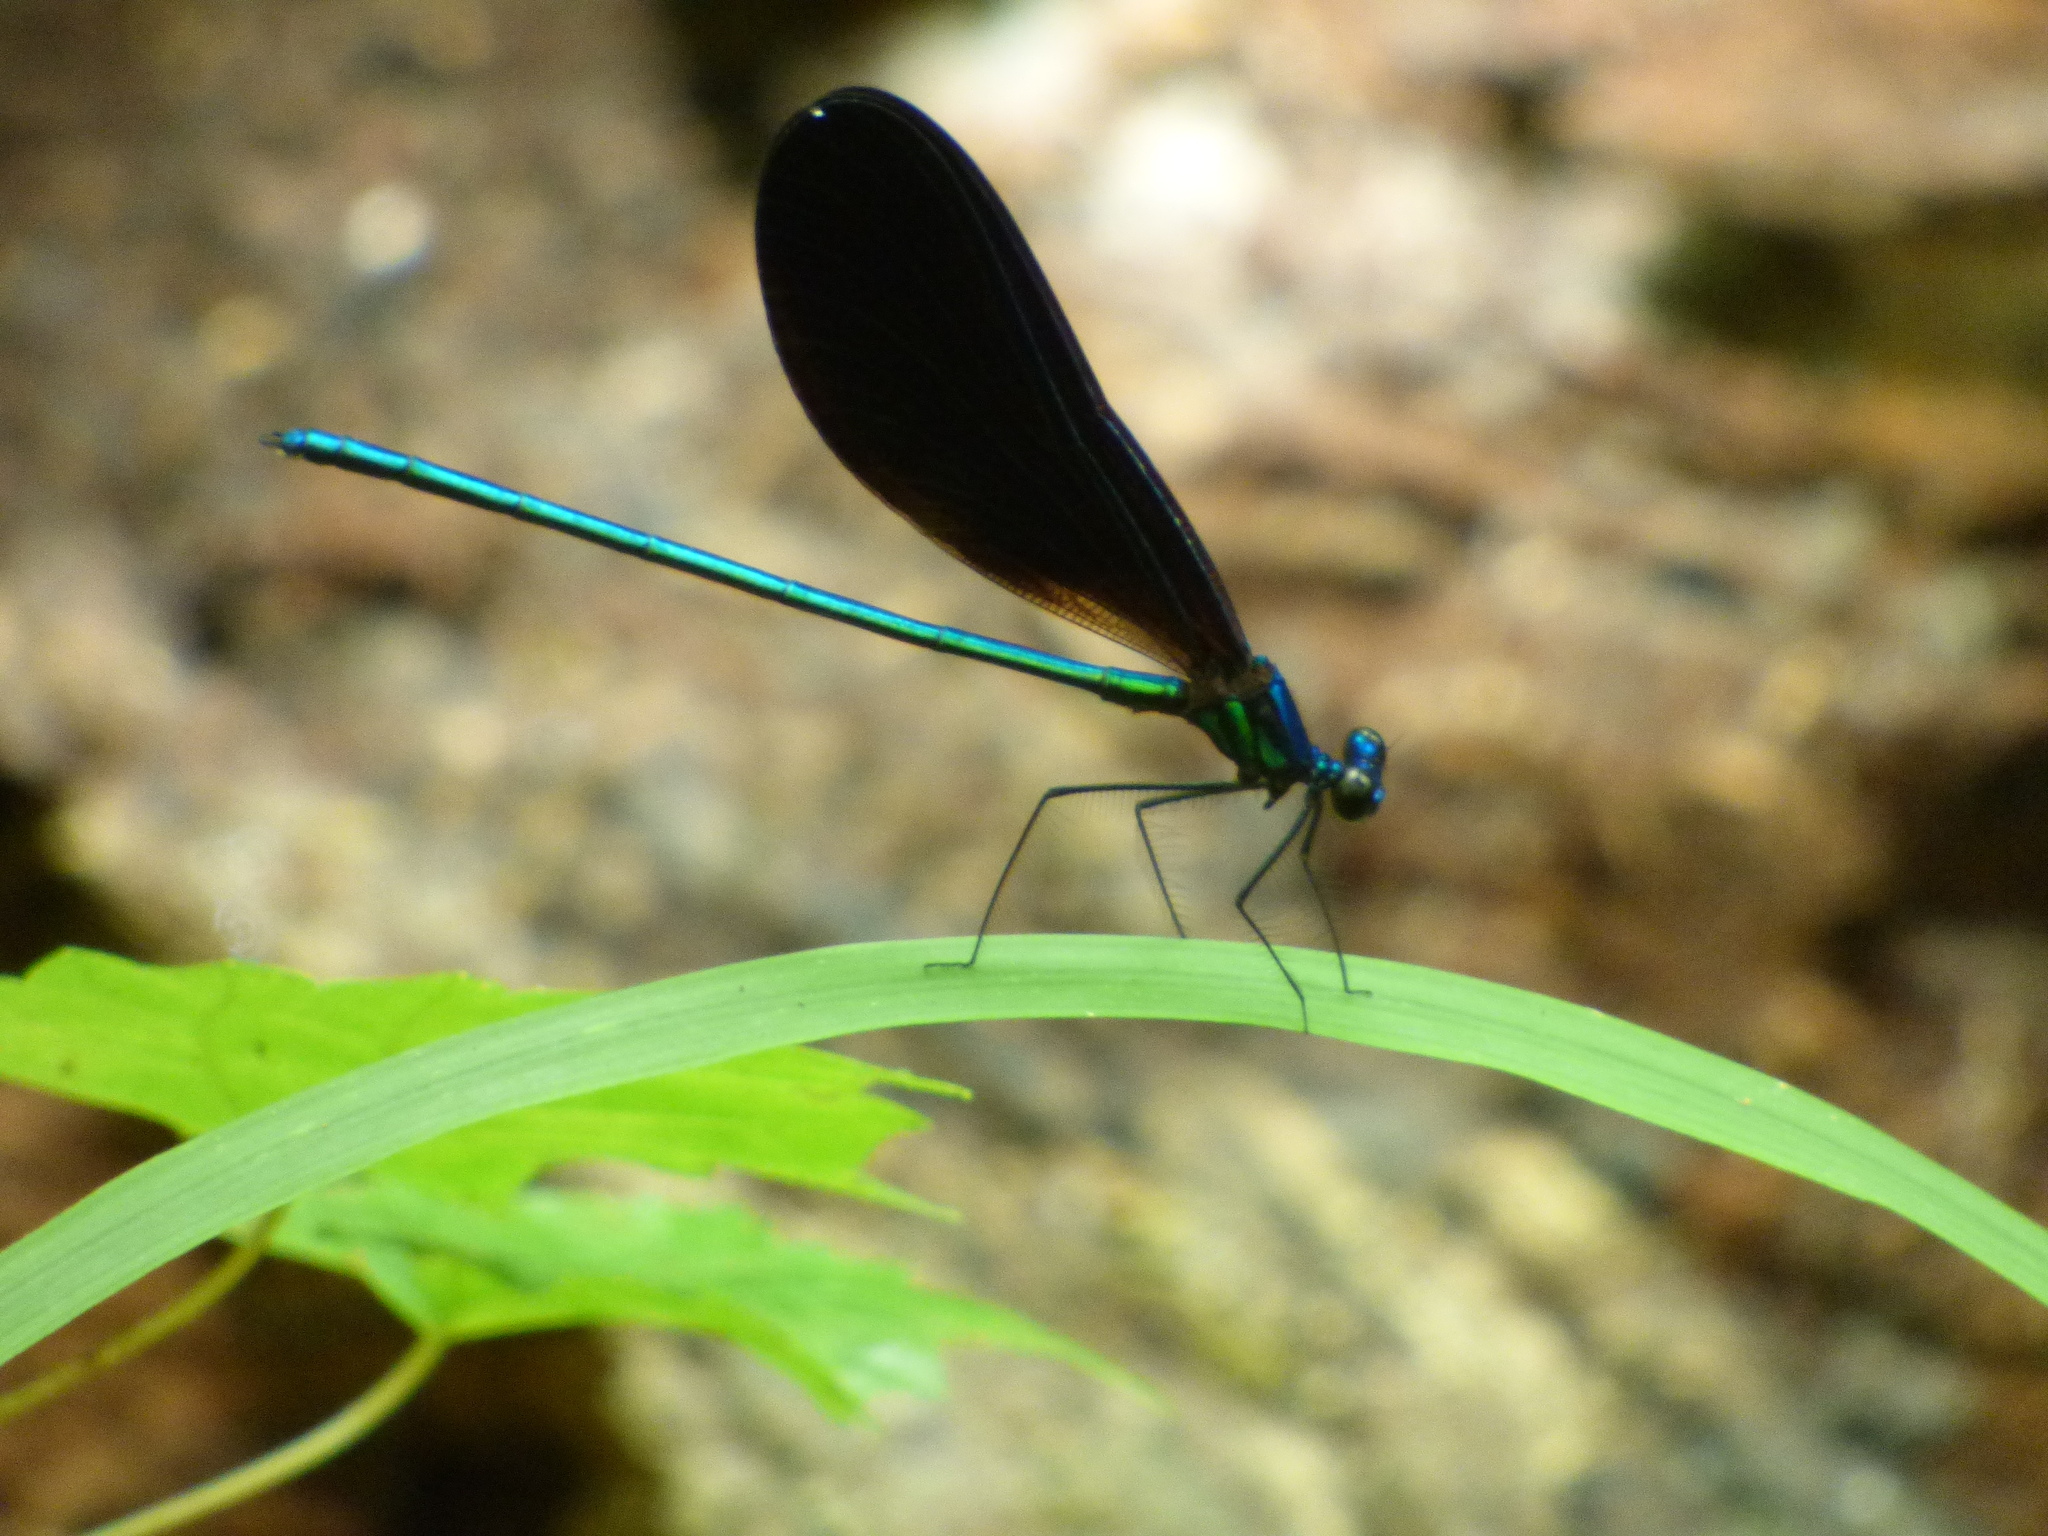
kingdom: Animalia
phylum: Arthropoda
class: Insecta
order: Odonata
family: Calopterygidae
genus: Calopteryx
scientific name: Calopteryx maculata
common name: Ebony jewelwing
